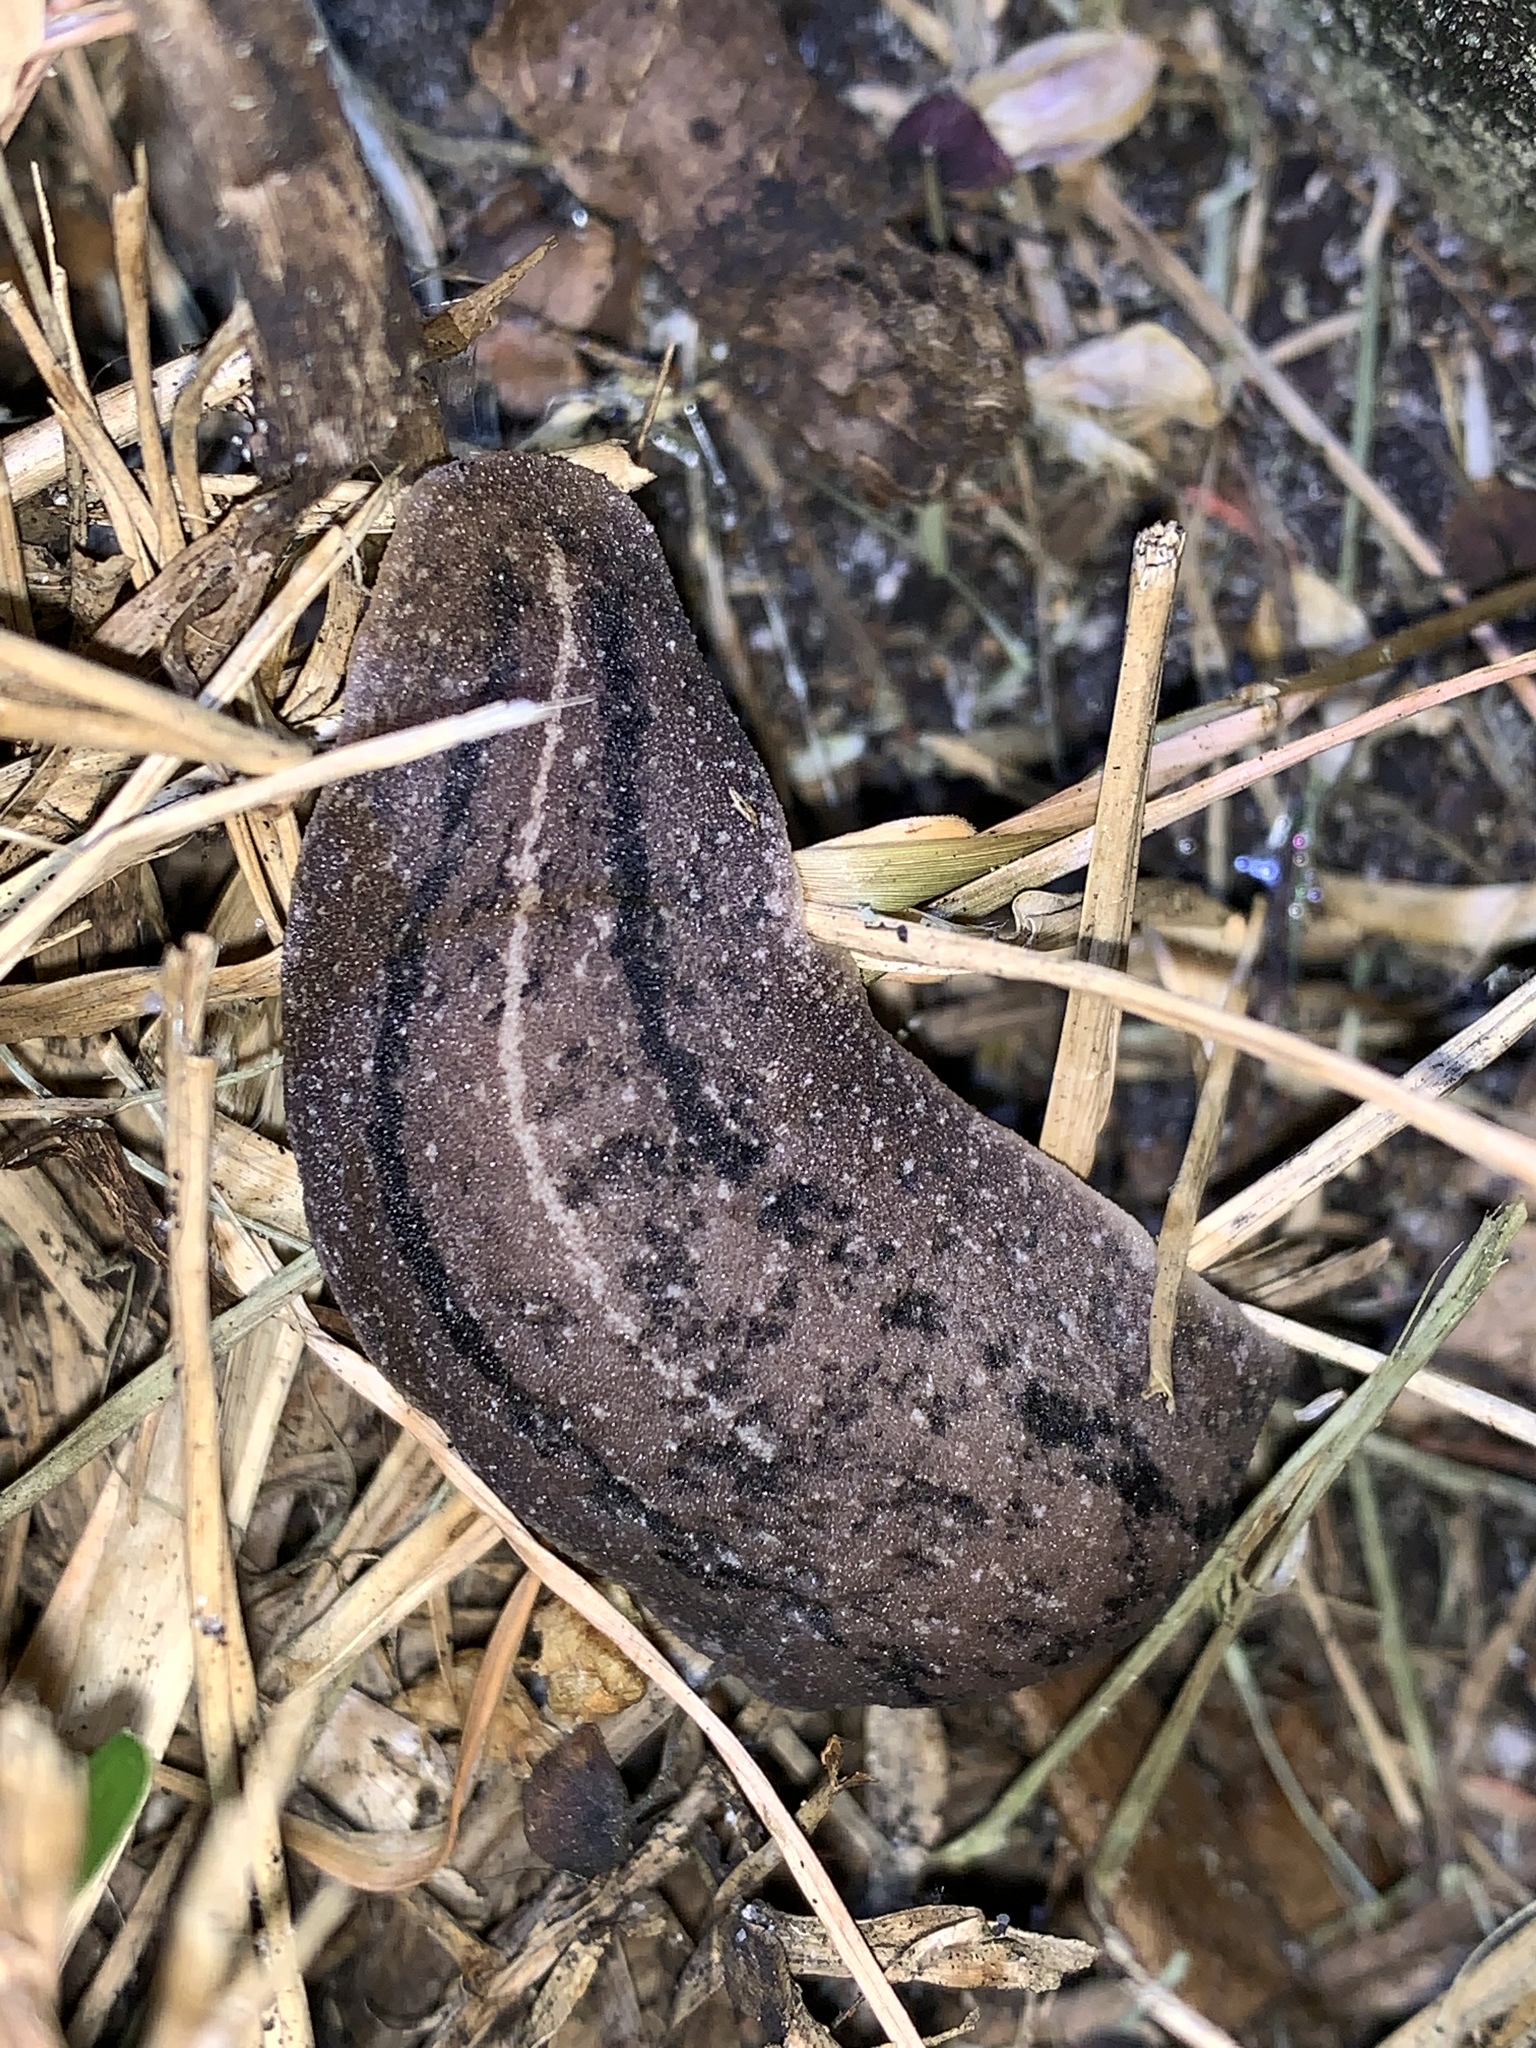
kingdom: Animalia
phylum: Mollusca
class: Gastropoda
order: Systellommatophora
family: Veronicellidae
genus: Leidyula
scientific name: Leidyula floridana
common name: Florida leatherleaf
